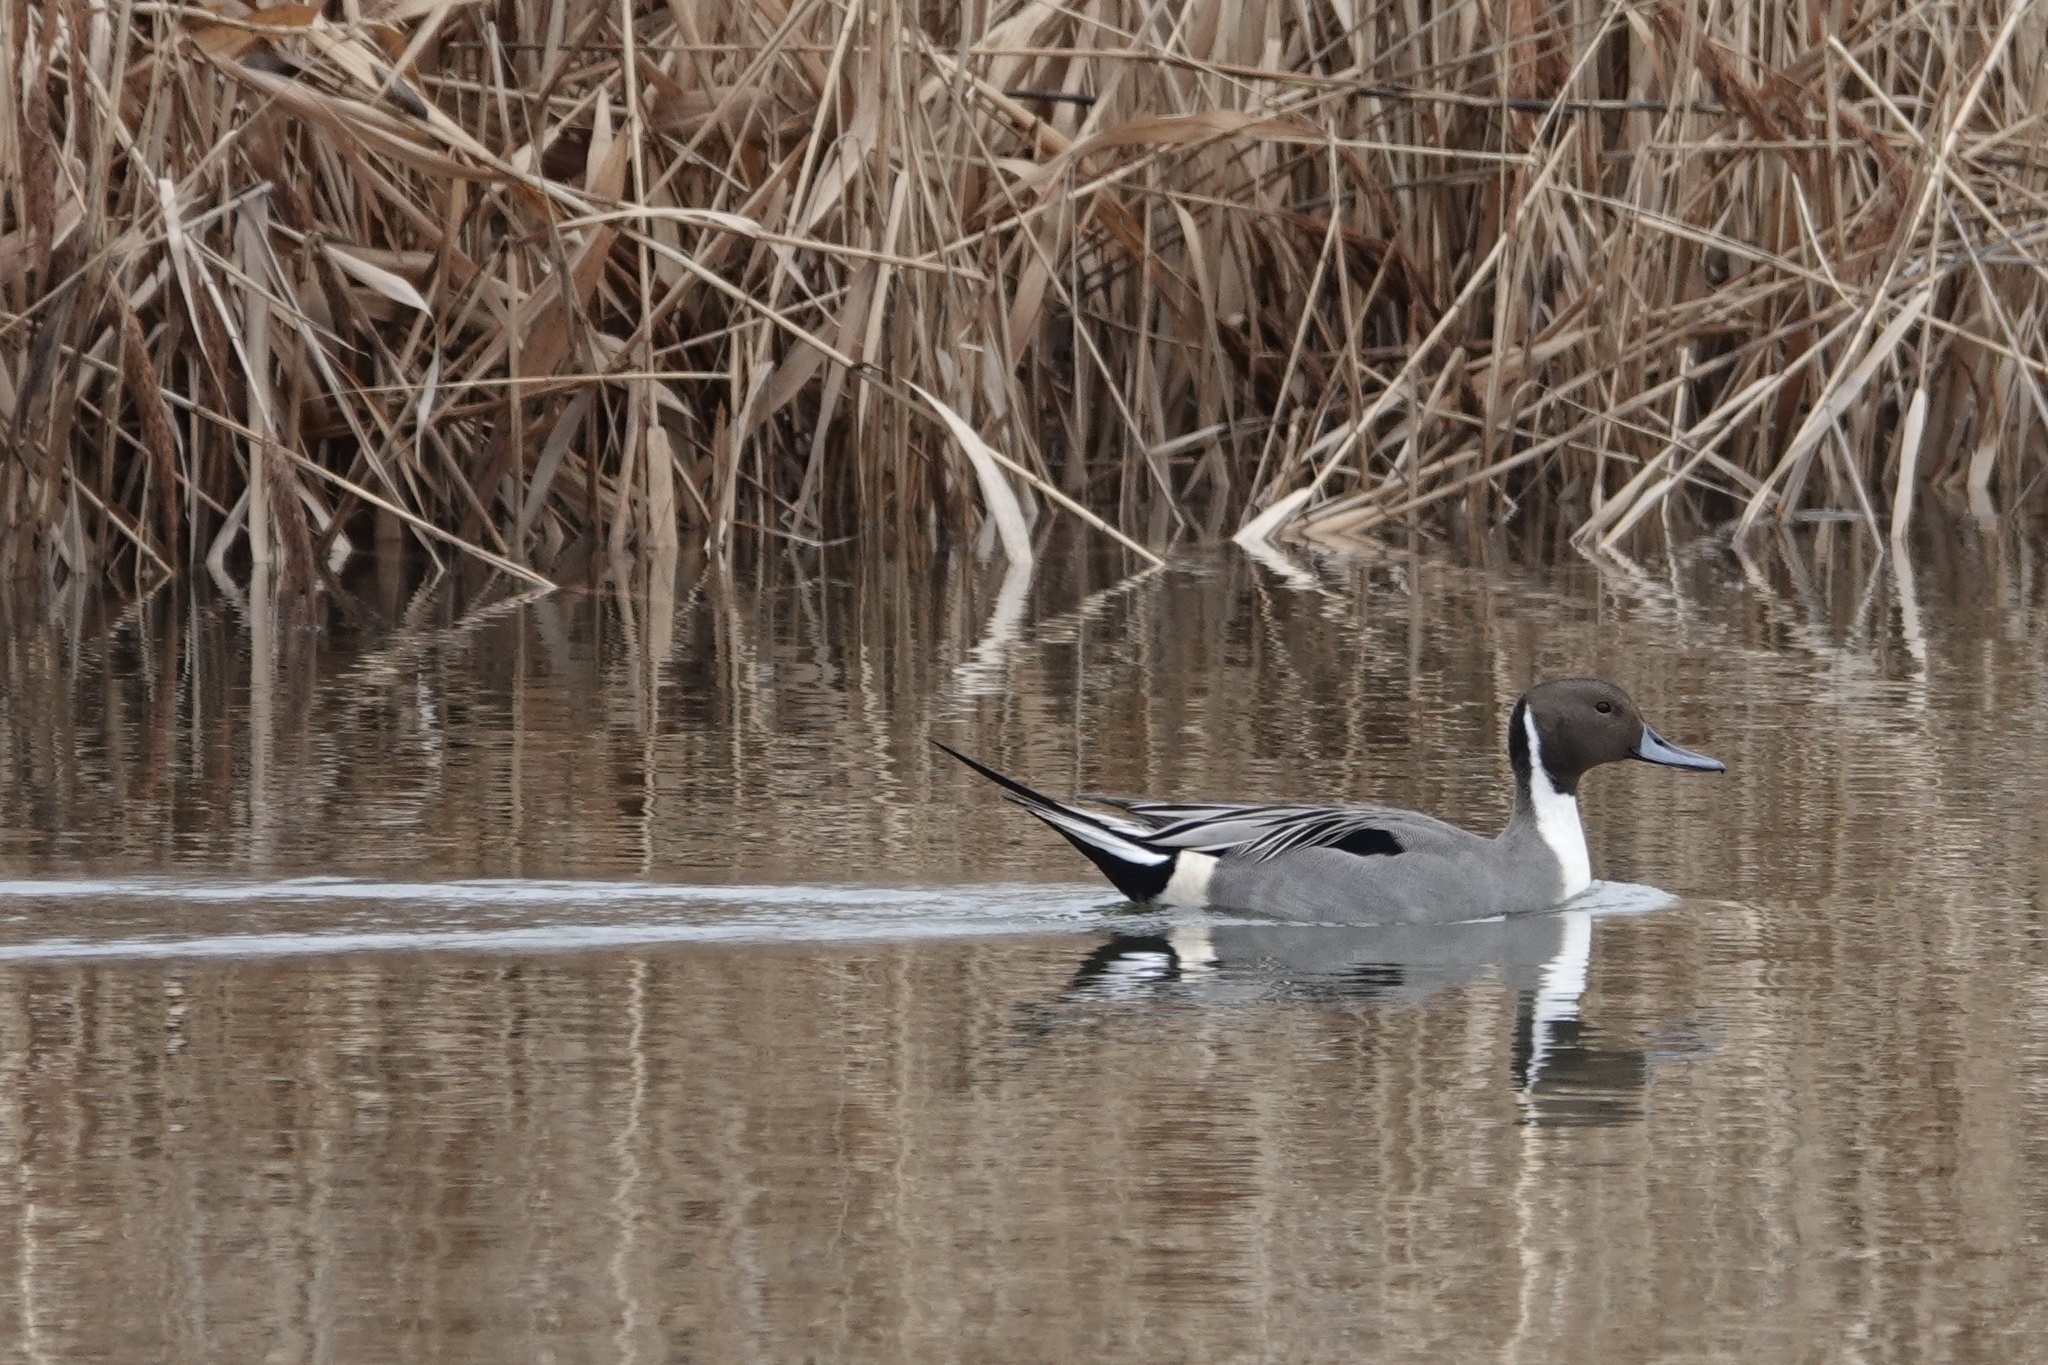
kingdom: Animalia
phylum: Chordata
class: Aves
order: Anseriformes
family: Anatidae
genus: Anas
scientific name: Anas acuta
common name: Northern pintail
